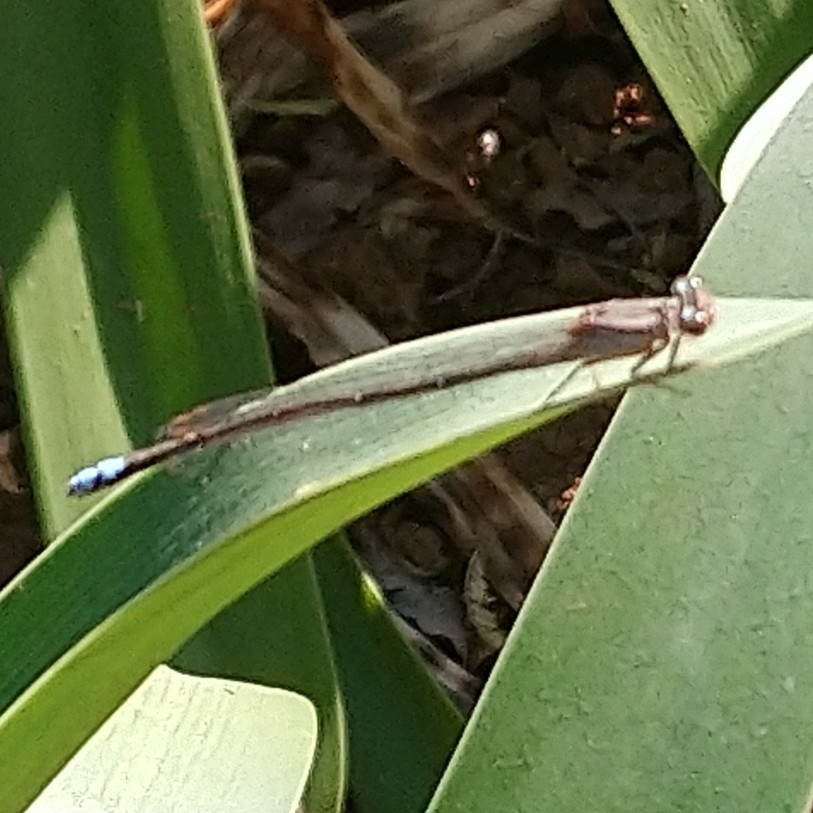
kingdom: Animalia
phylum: Arthropoda
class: Insecta
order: Odonata
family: Coenagrionidae
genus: Pseudagrion
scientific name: Pseudagrion salisburyense
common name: Slate sprite
